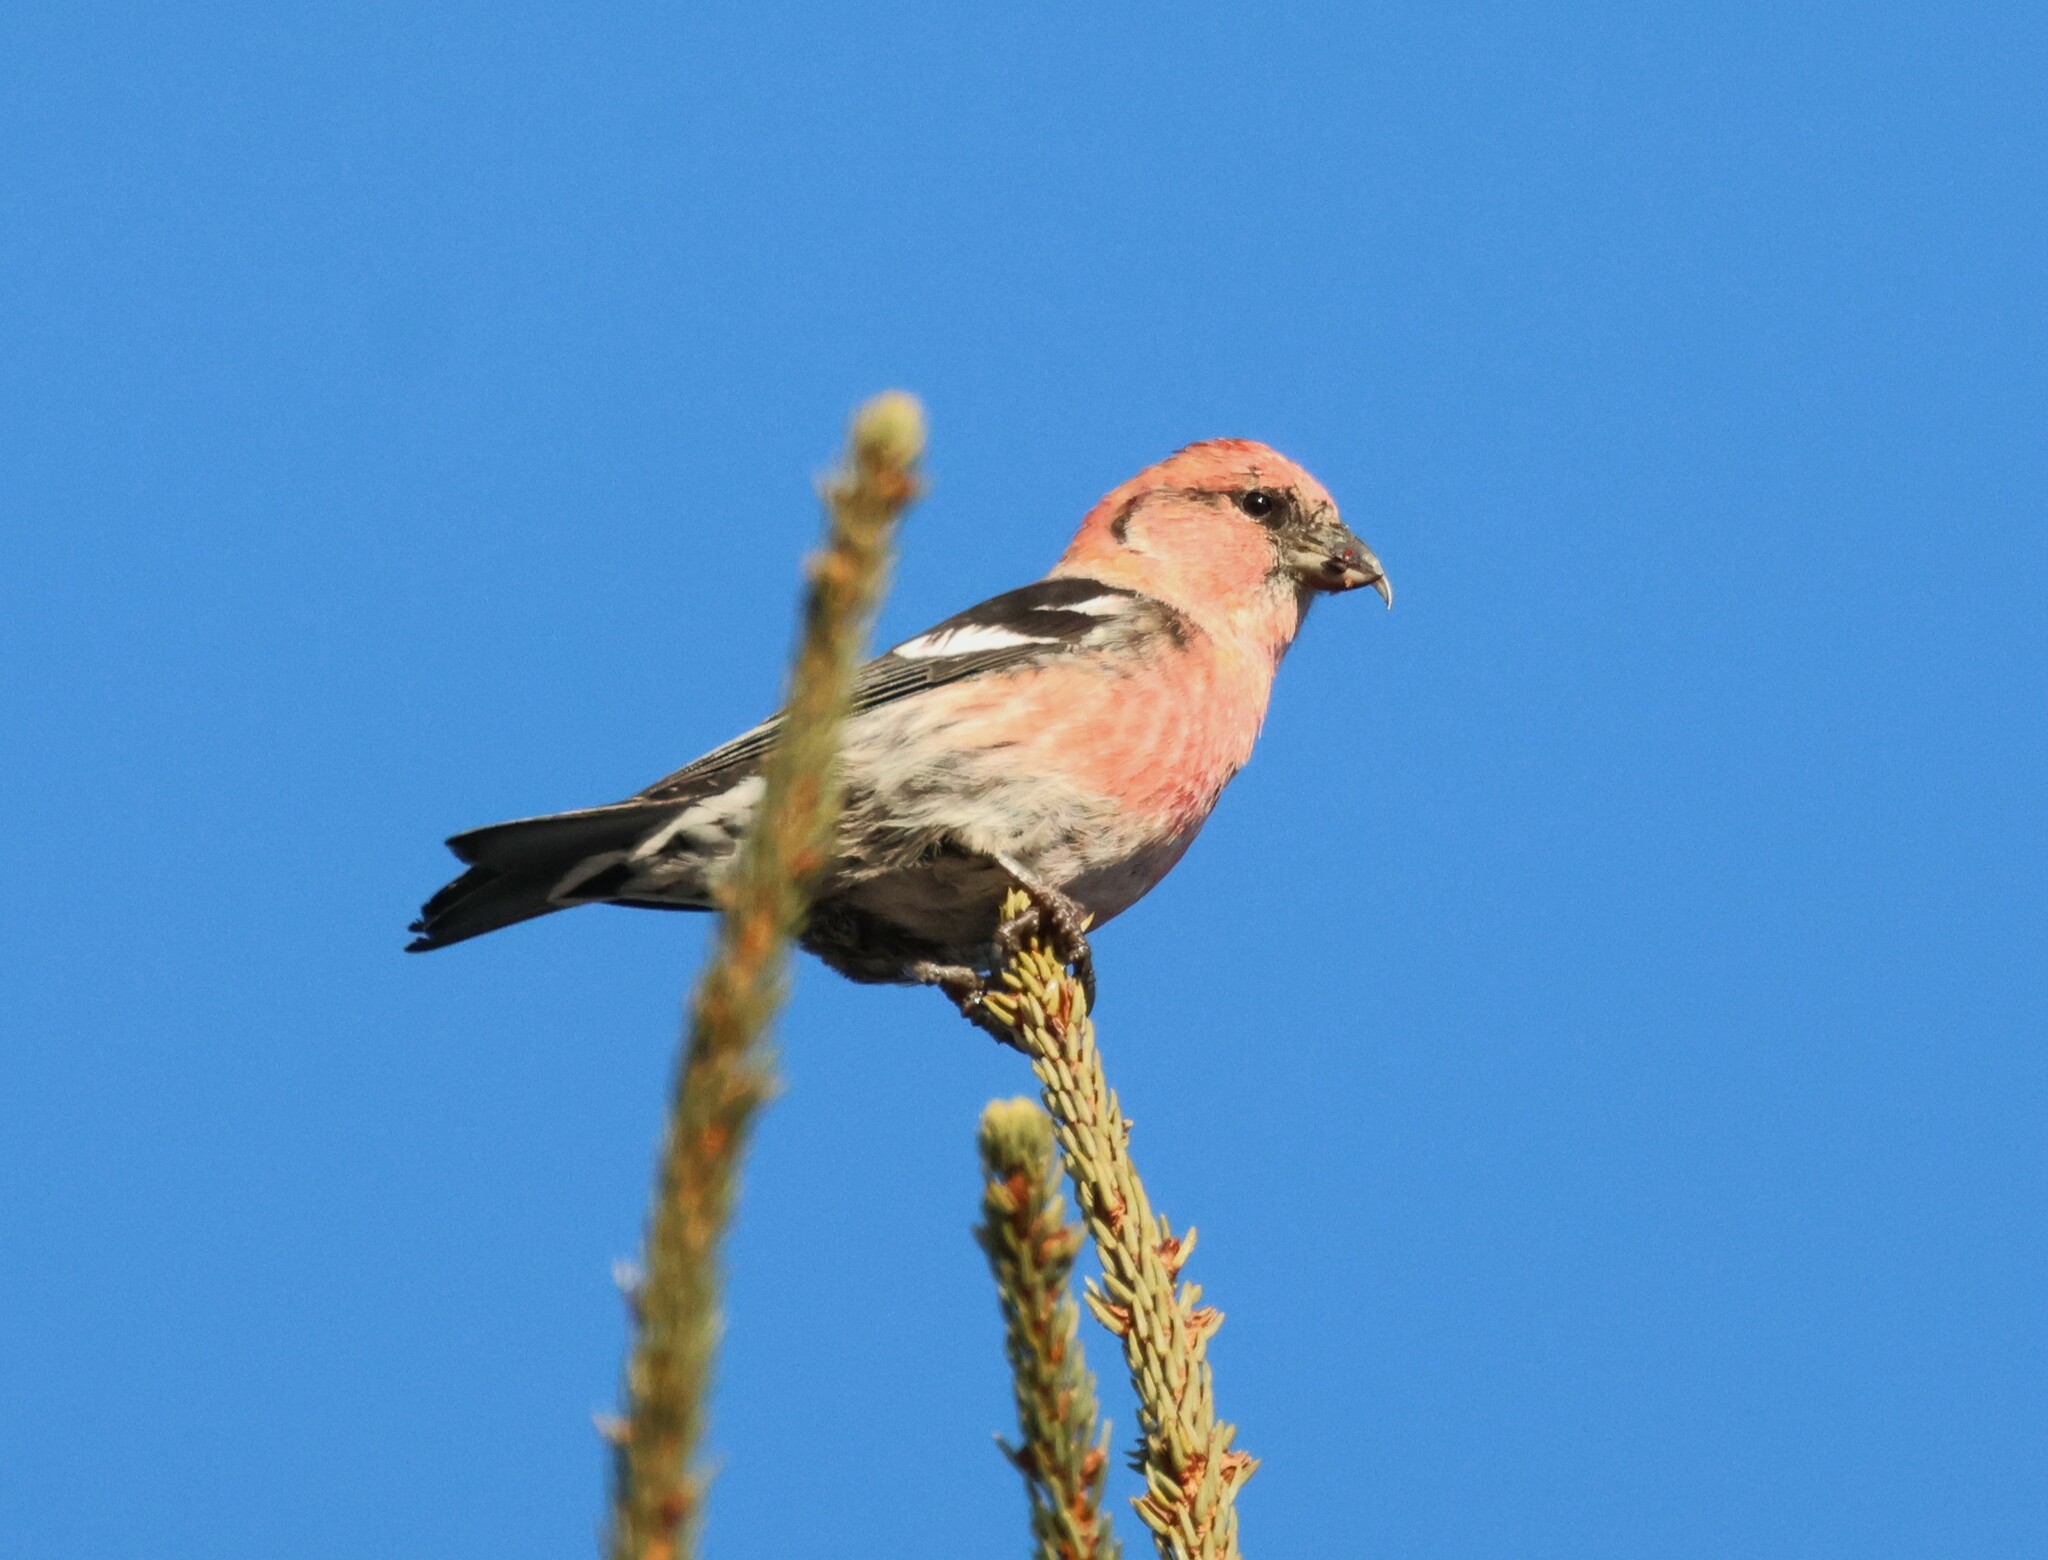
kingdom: Animalia
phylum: Chordata
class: Aves
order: Passeriformes
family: Fringillidae
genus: Loxia
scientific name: Loxia leucoptera
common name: Two-barred crossbill
